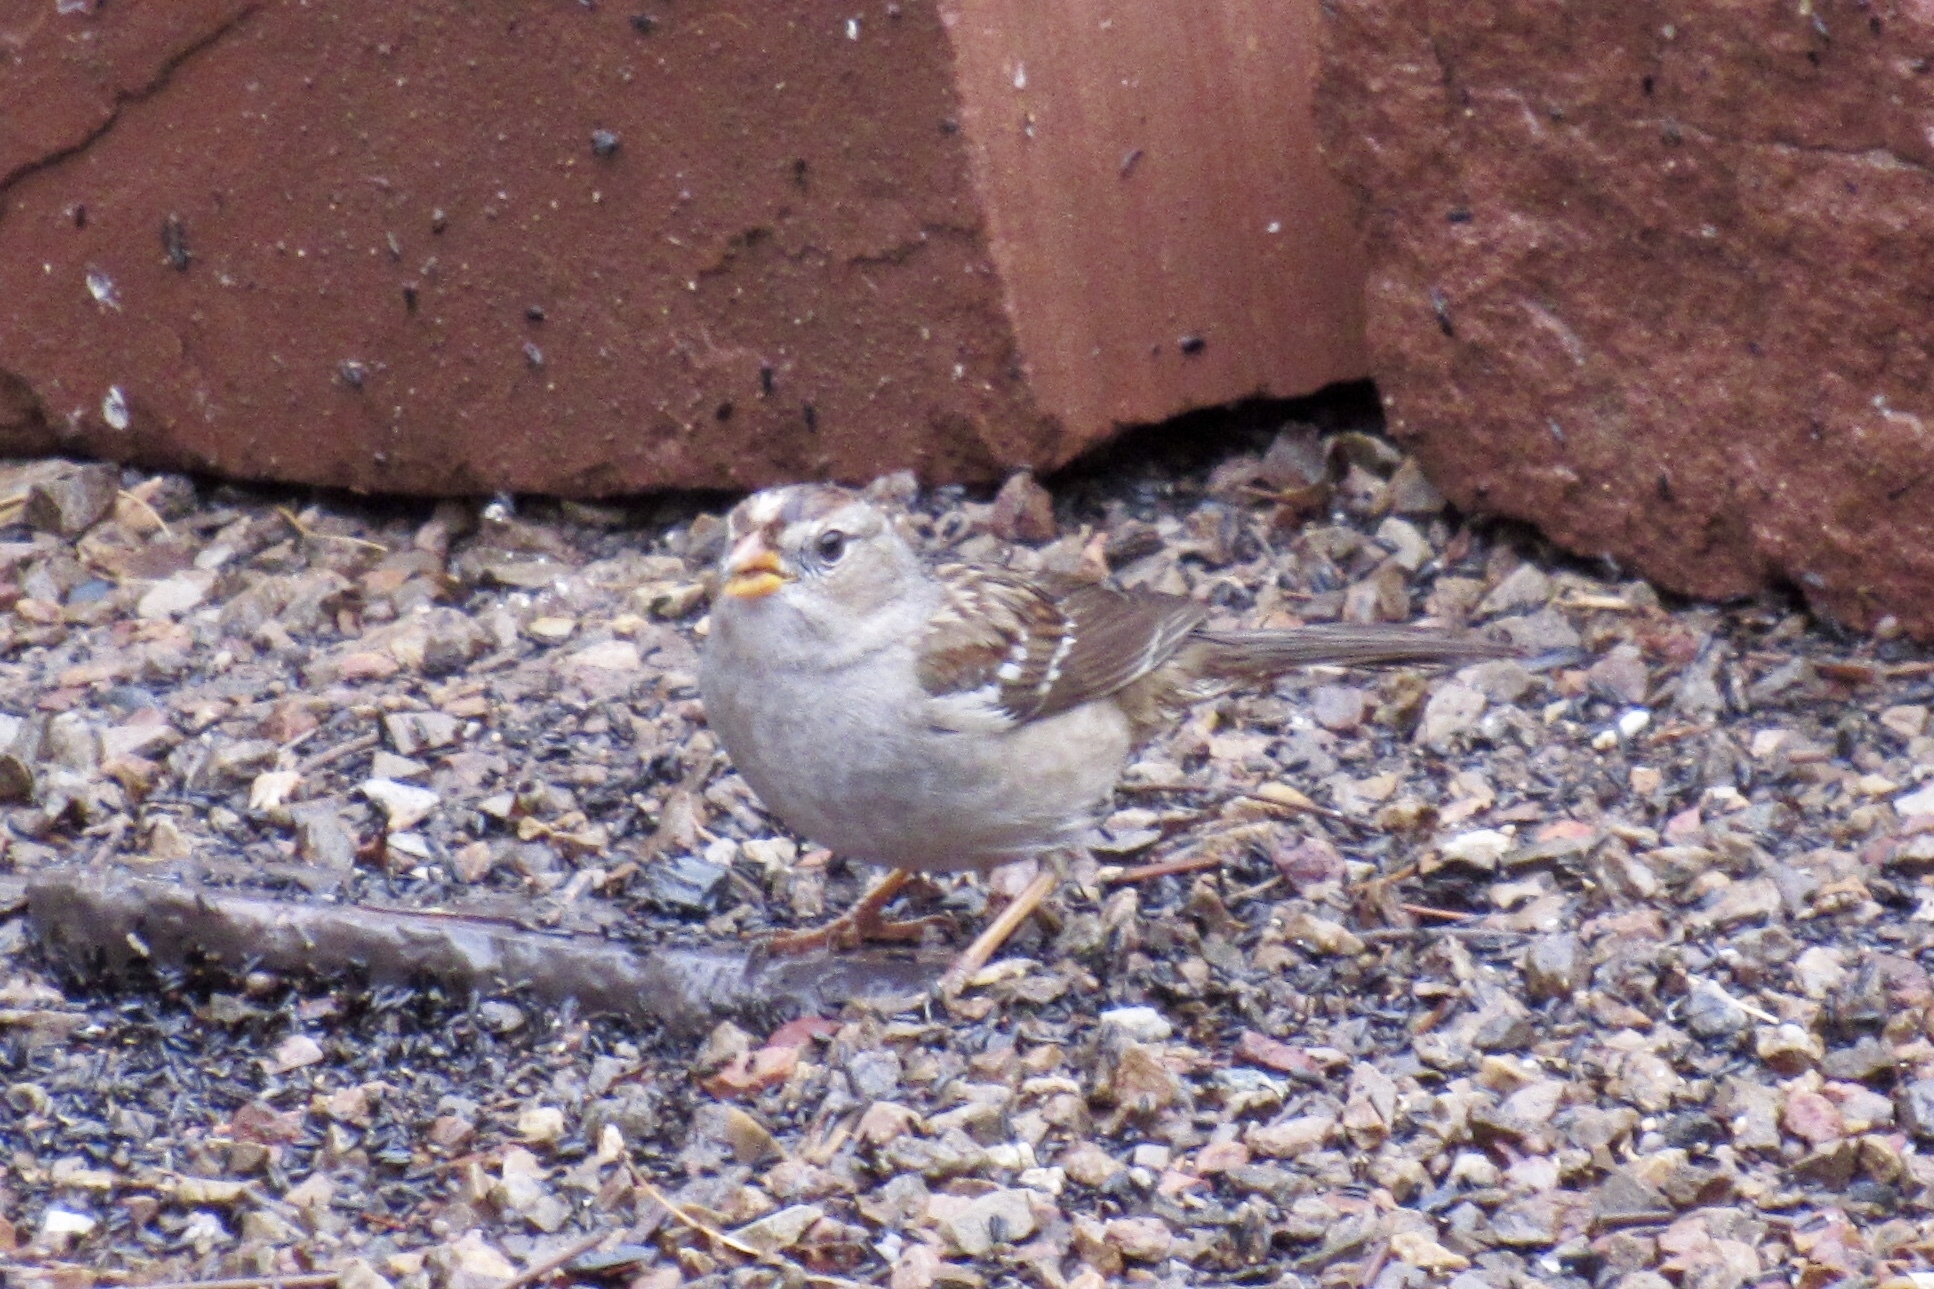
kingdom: Animalia
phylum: Chordata
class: Aves
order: Passeriformes
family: Passerellidae
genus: Zonotrichia
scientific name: Zonotrichia leucophrys
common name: White-crowned sparrow
